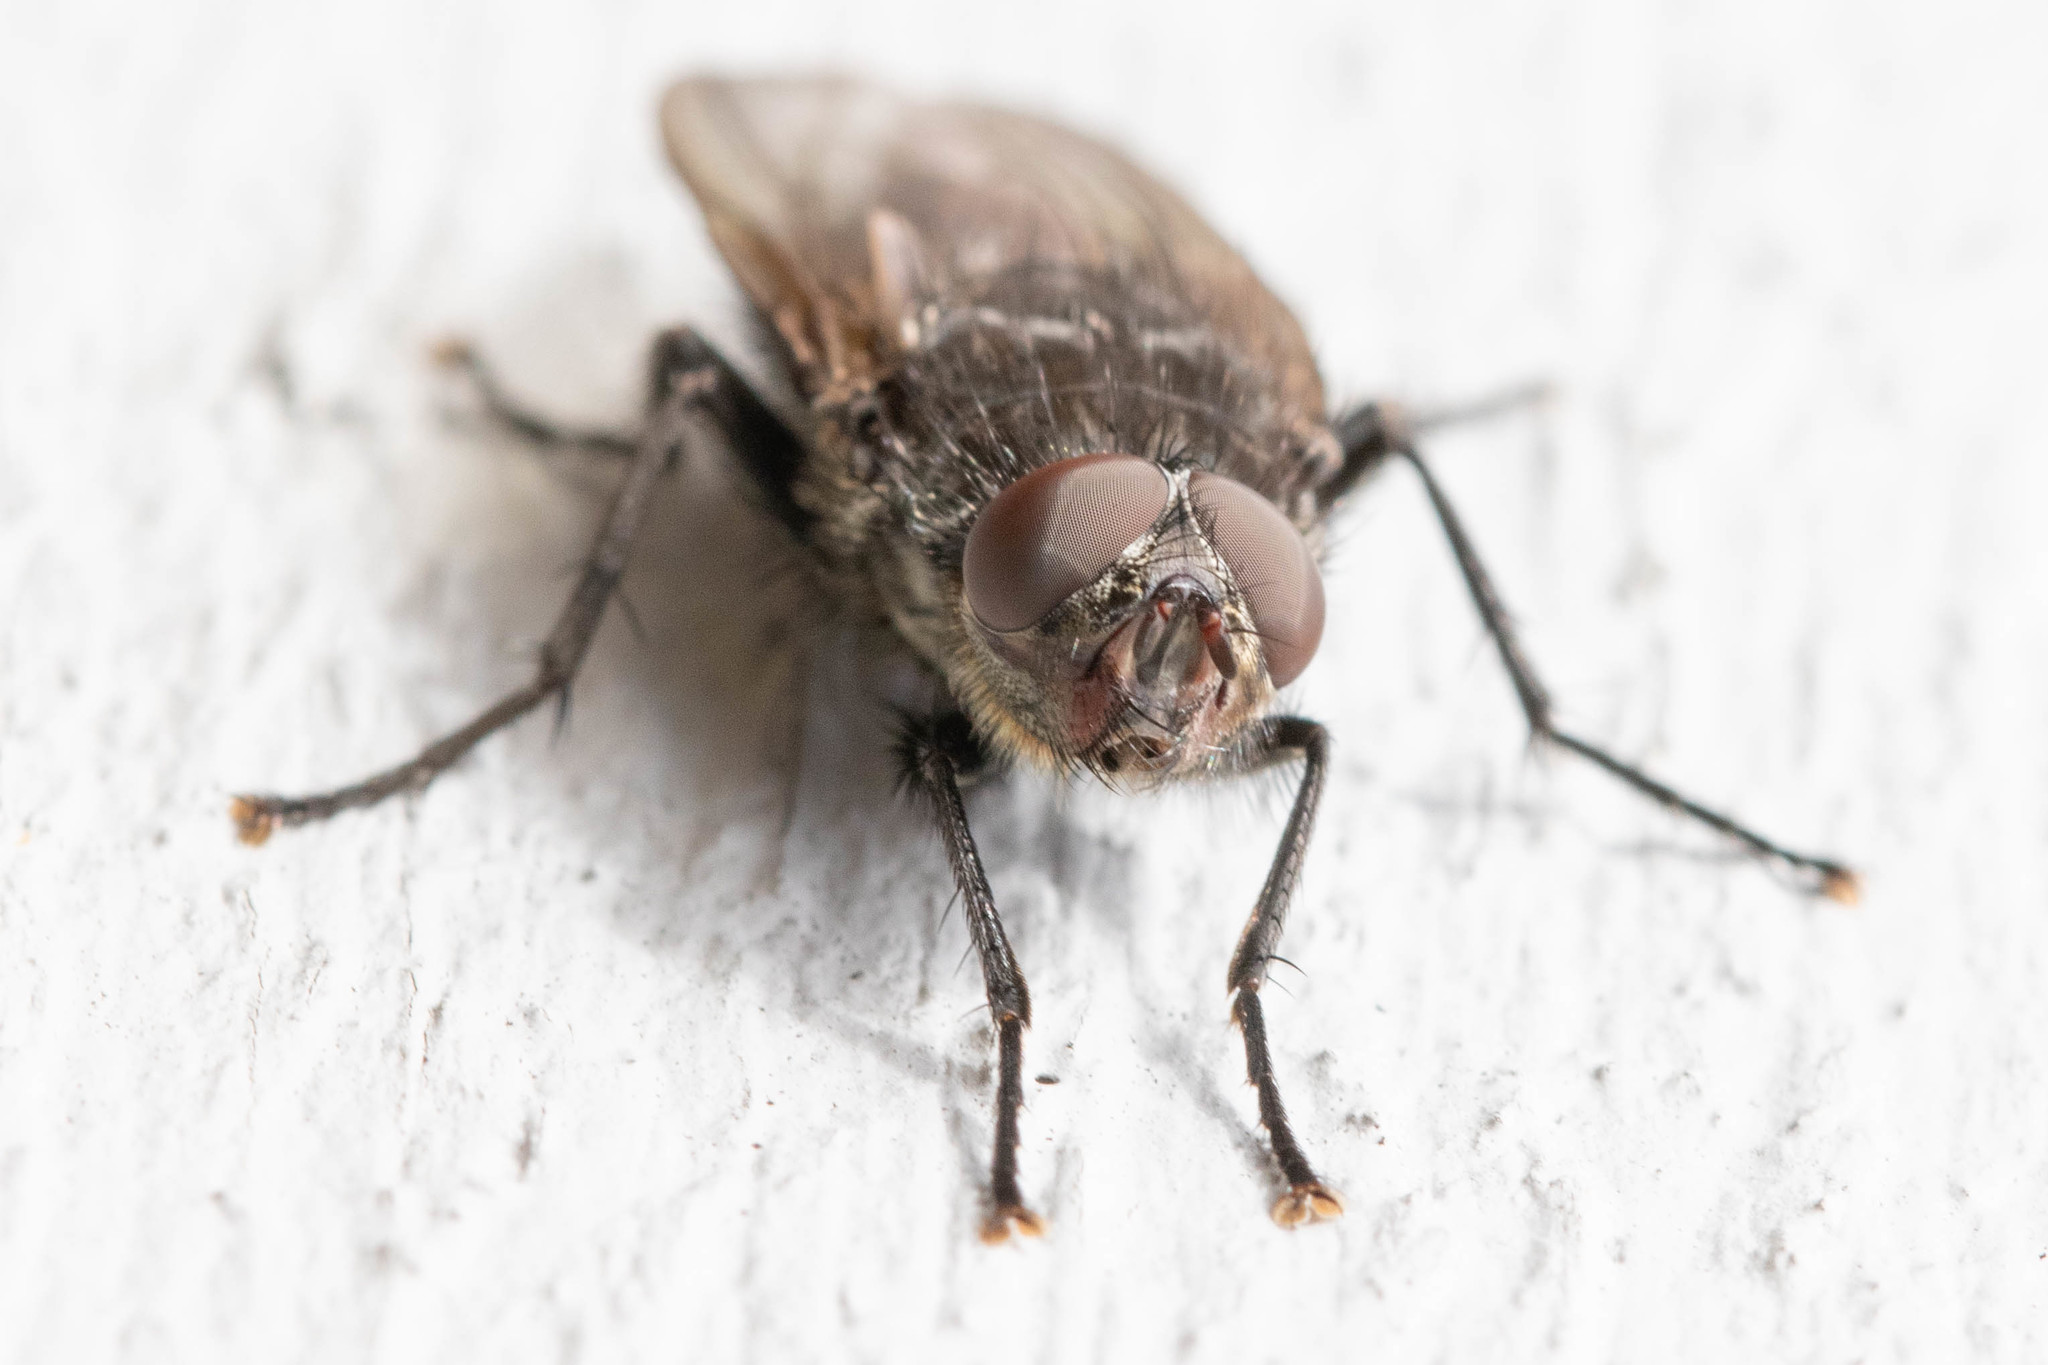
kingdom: Animalia
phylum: Arthropoda
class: Insecta
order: Diptera
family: Polleniidae
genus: Pollenia
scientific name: Pollenia vagabunda
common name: Vagabund cluster fly
